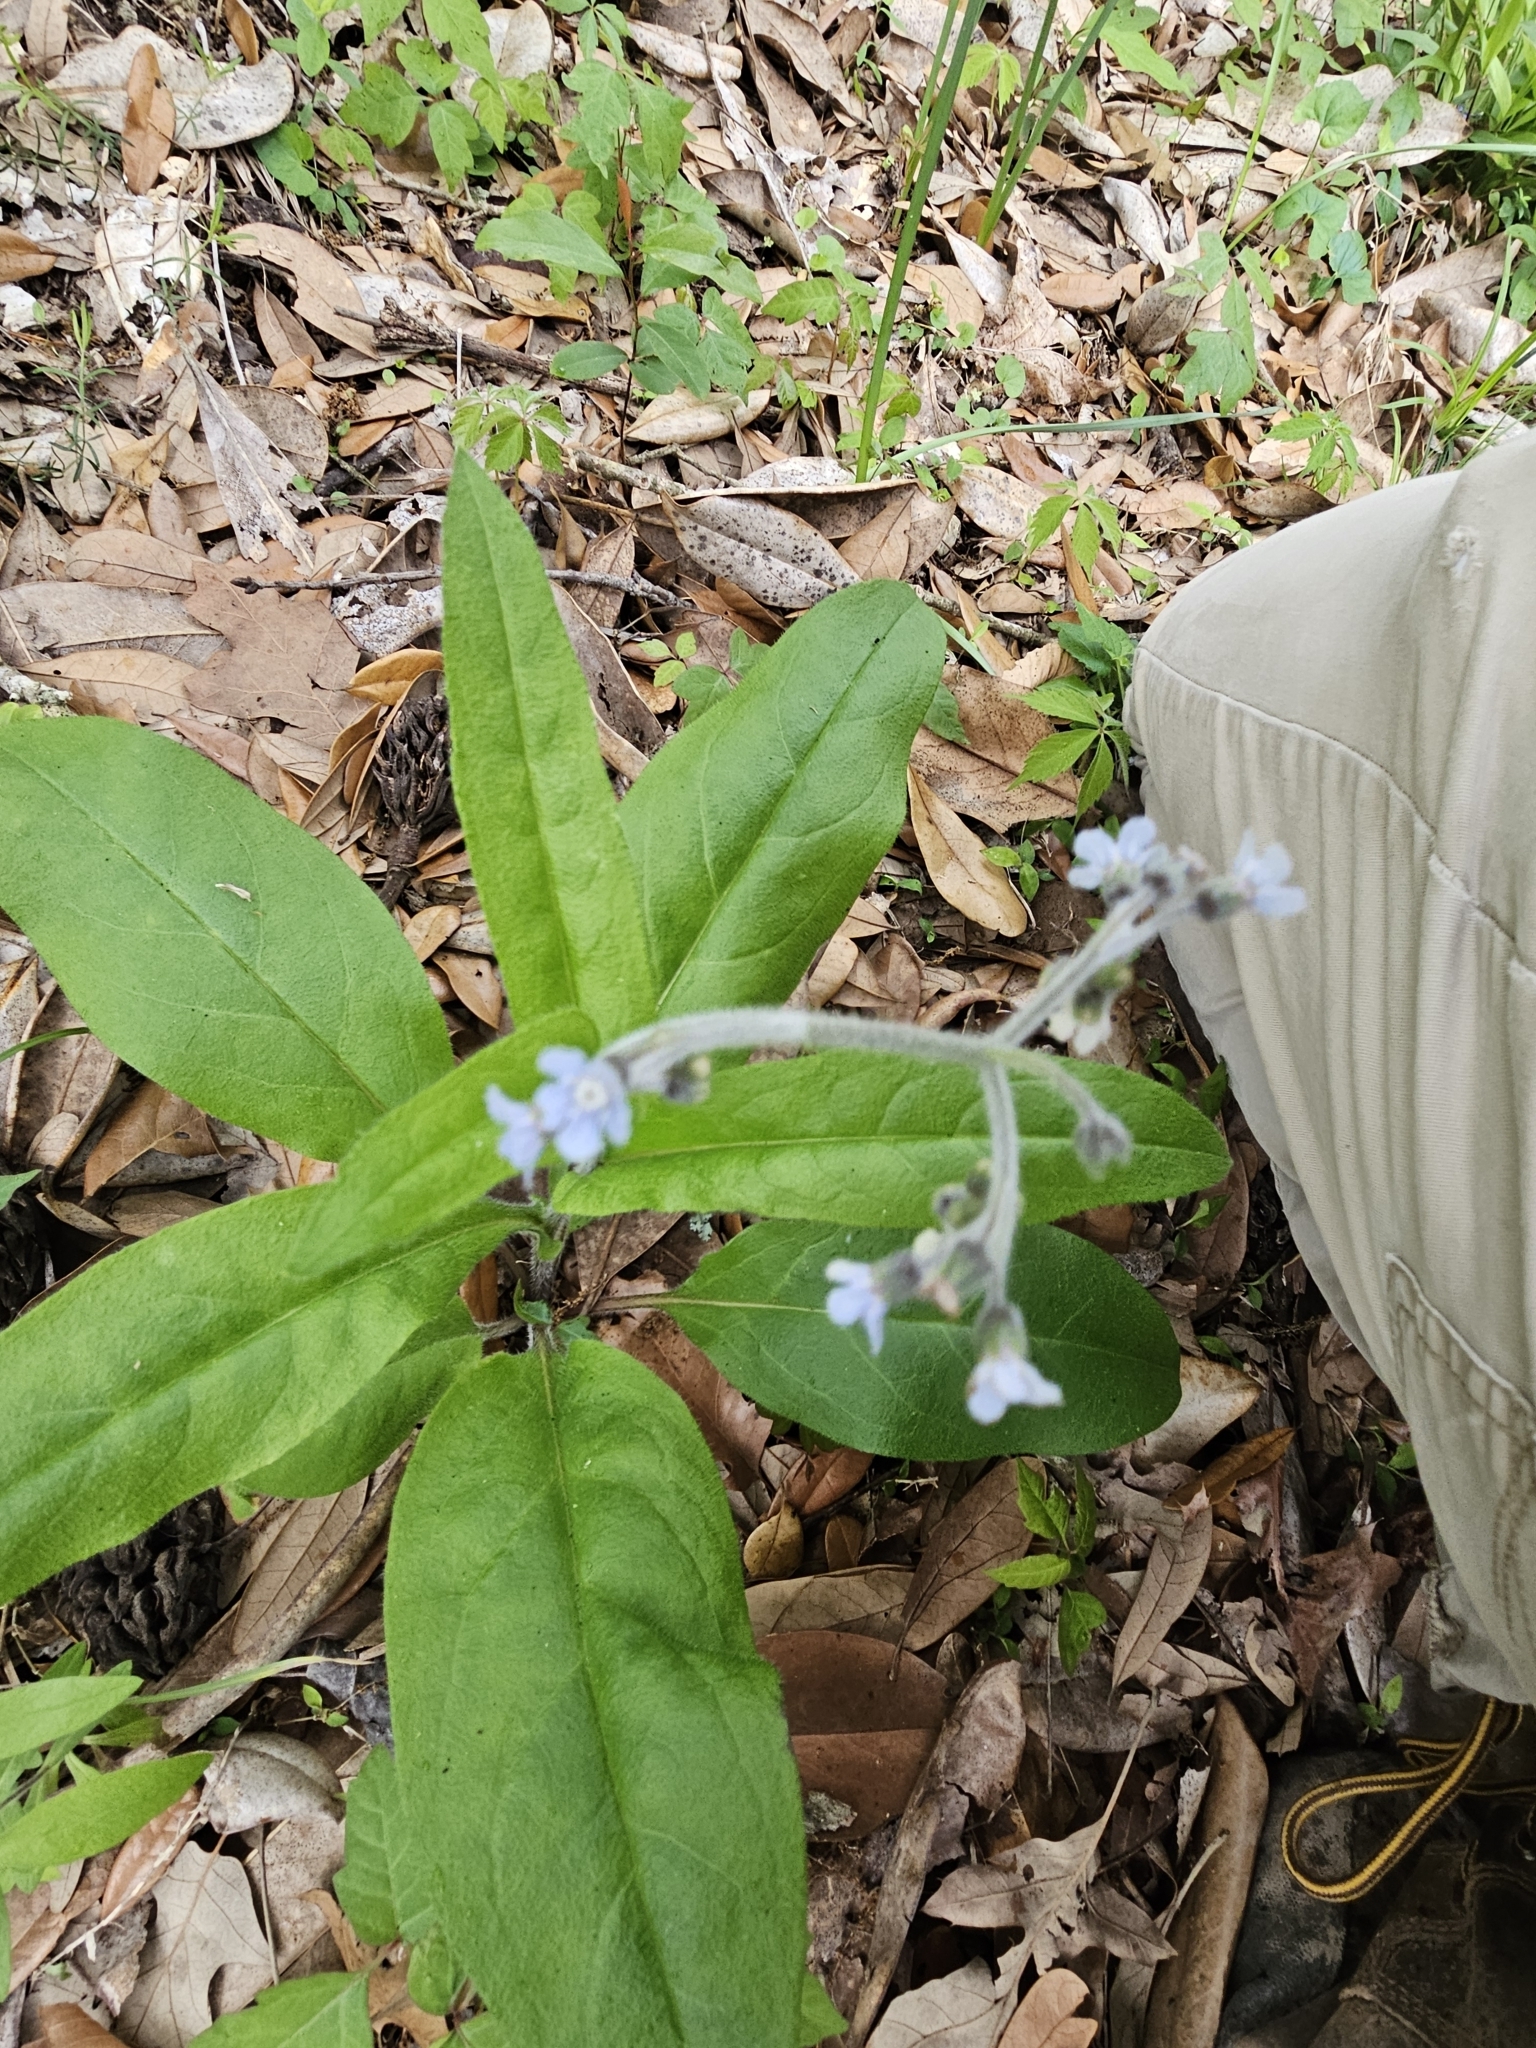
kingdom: Plantae
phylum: Tracheophyta
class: Magnoliopsida
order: Boraginales
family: Boraginaceae
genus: Andersonglossum
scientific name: Andersonglossum virginianum
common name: Wild comfrey
